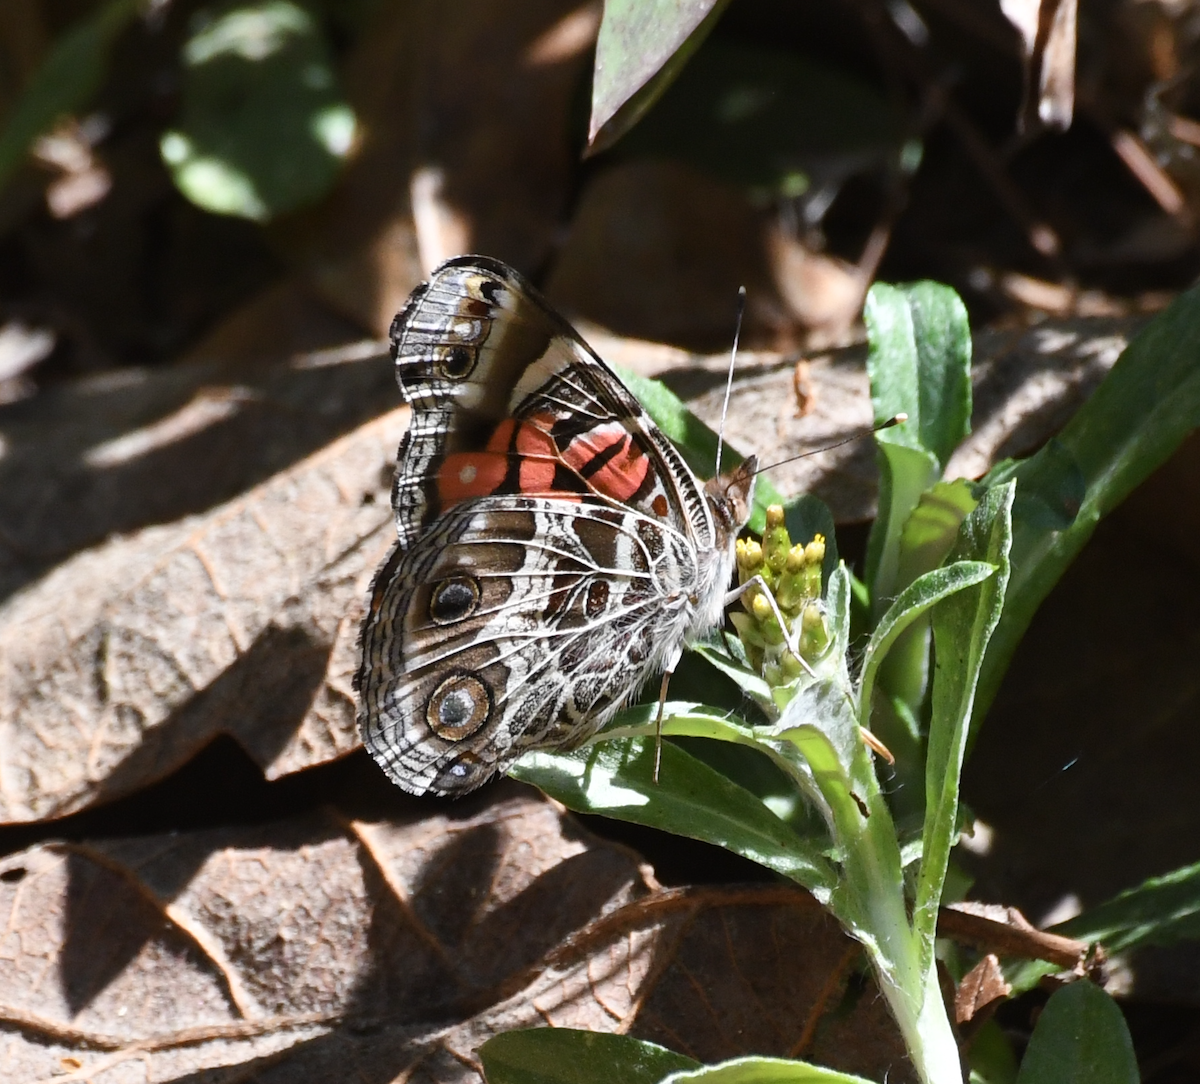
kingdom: Animalia
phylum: Arthropoda
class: Insecta
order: Lepidoptera
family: Nymphalidae
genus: Vanessa
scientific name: Vanessa virginiensis
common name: American lady
